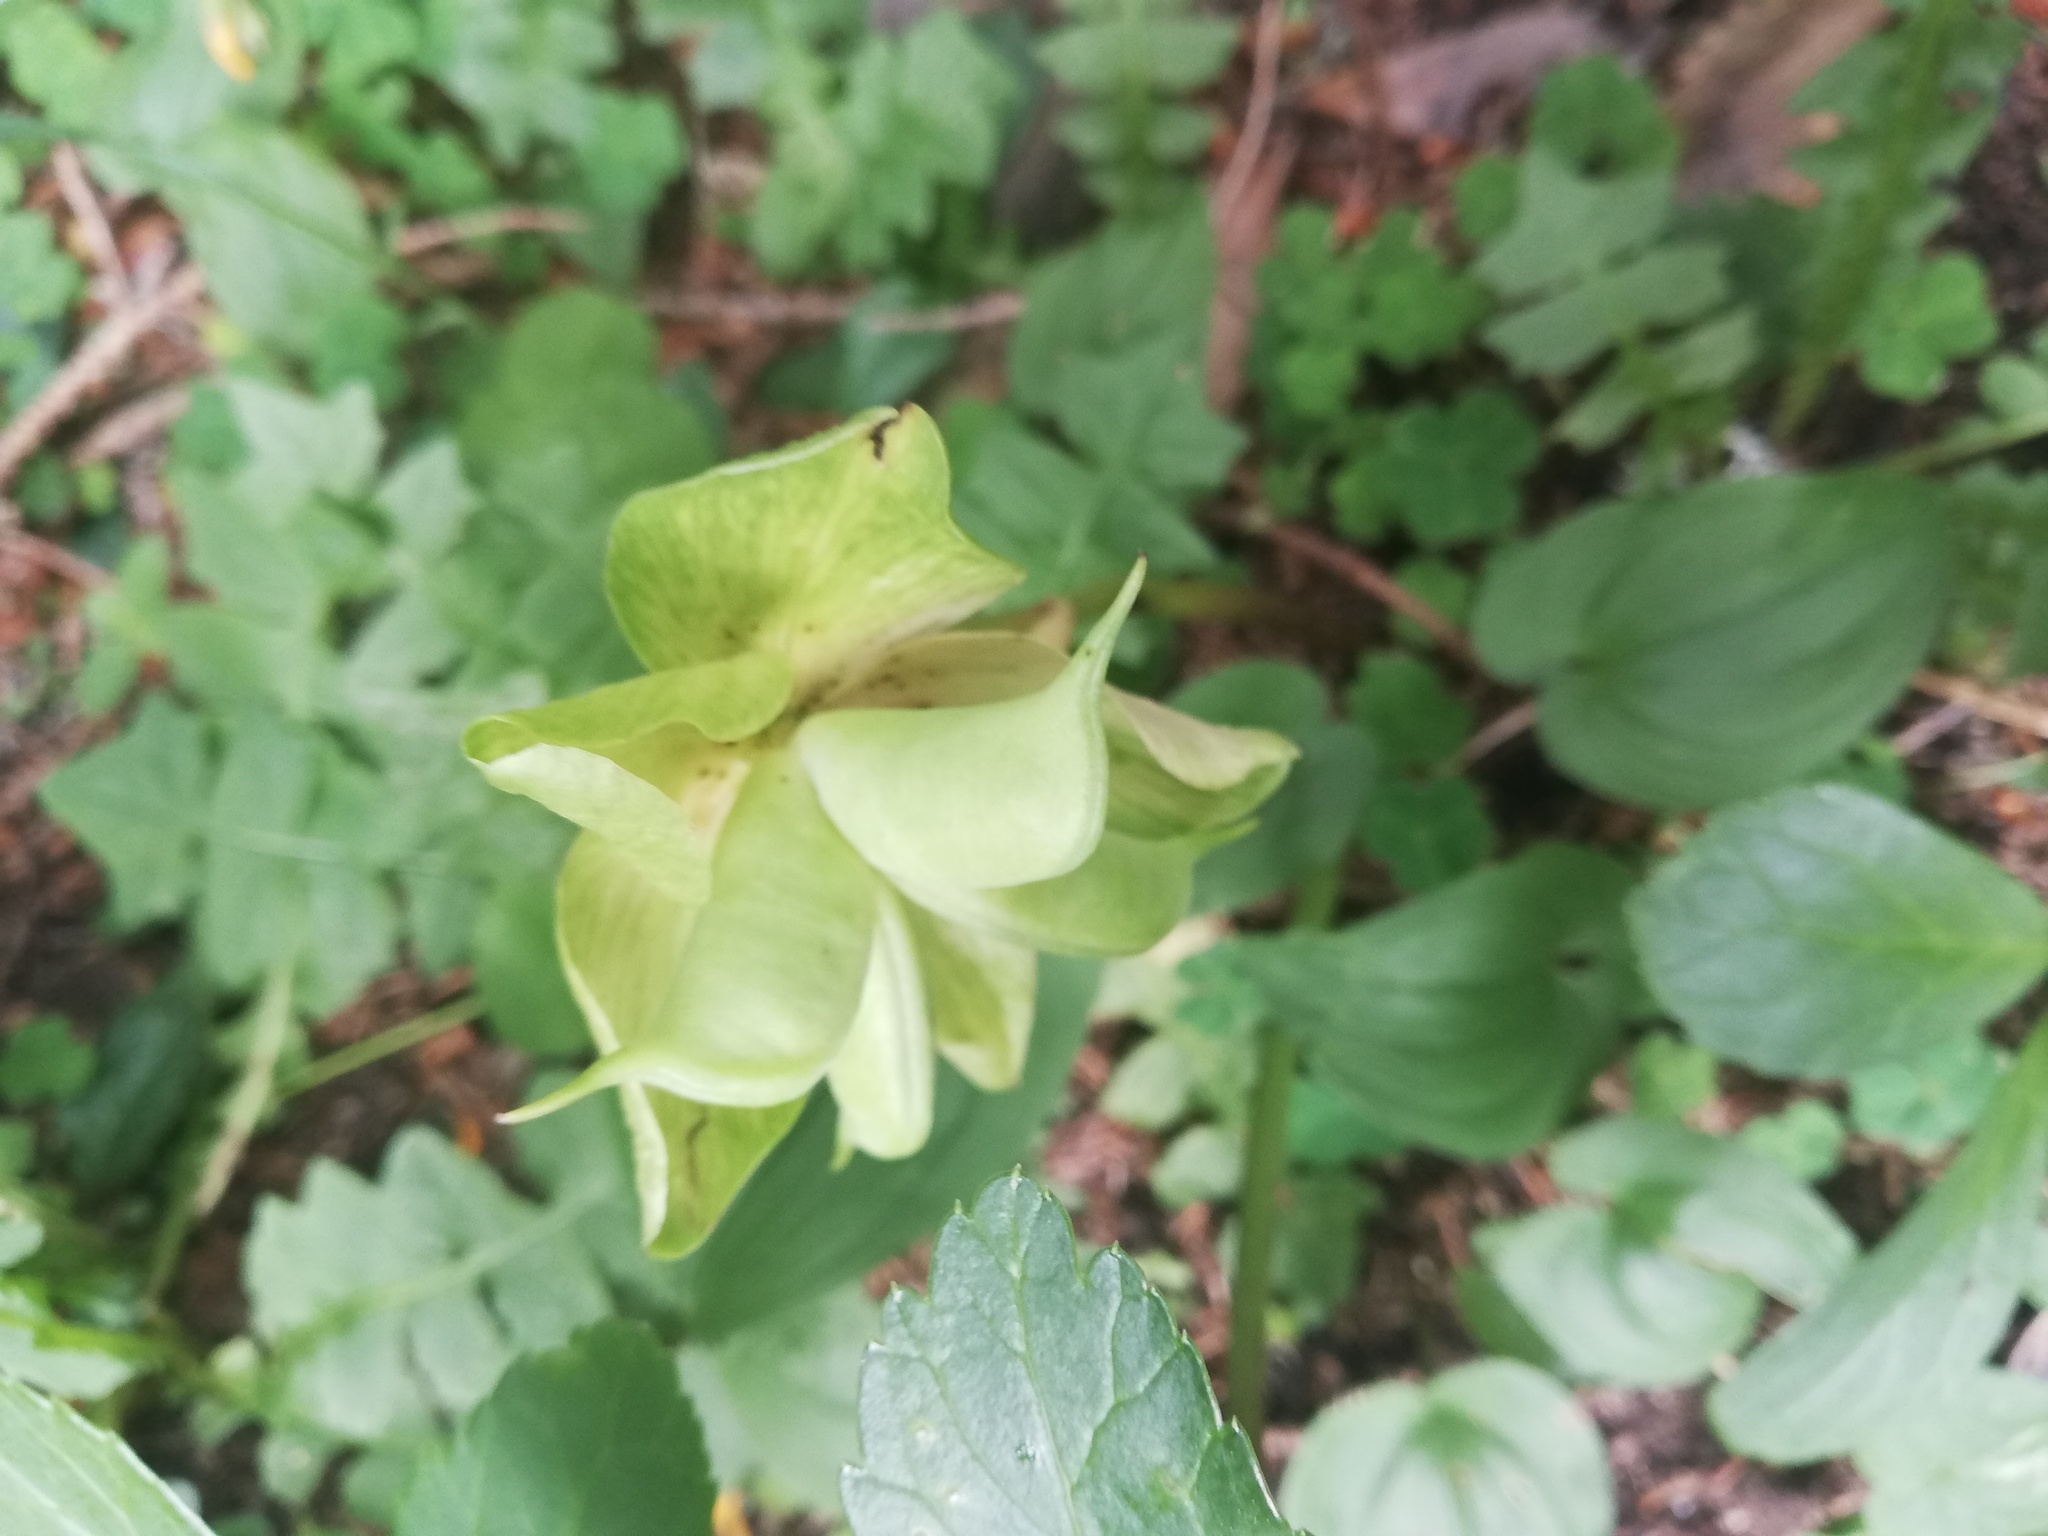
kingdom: Plantae
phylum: Tracheophyta
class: Magnoliopsida
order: Ranunculales
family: Ranunculaceae
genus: Helleborus
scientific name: Helleborus niger
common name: Black hellebore
